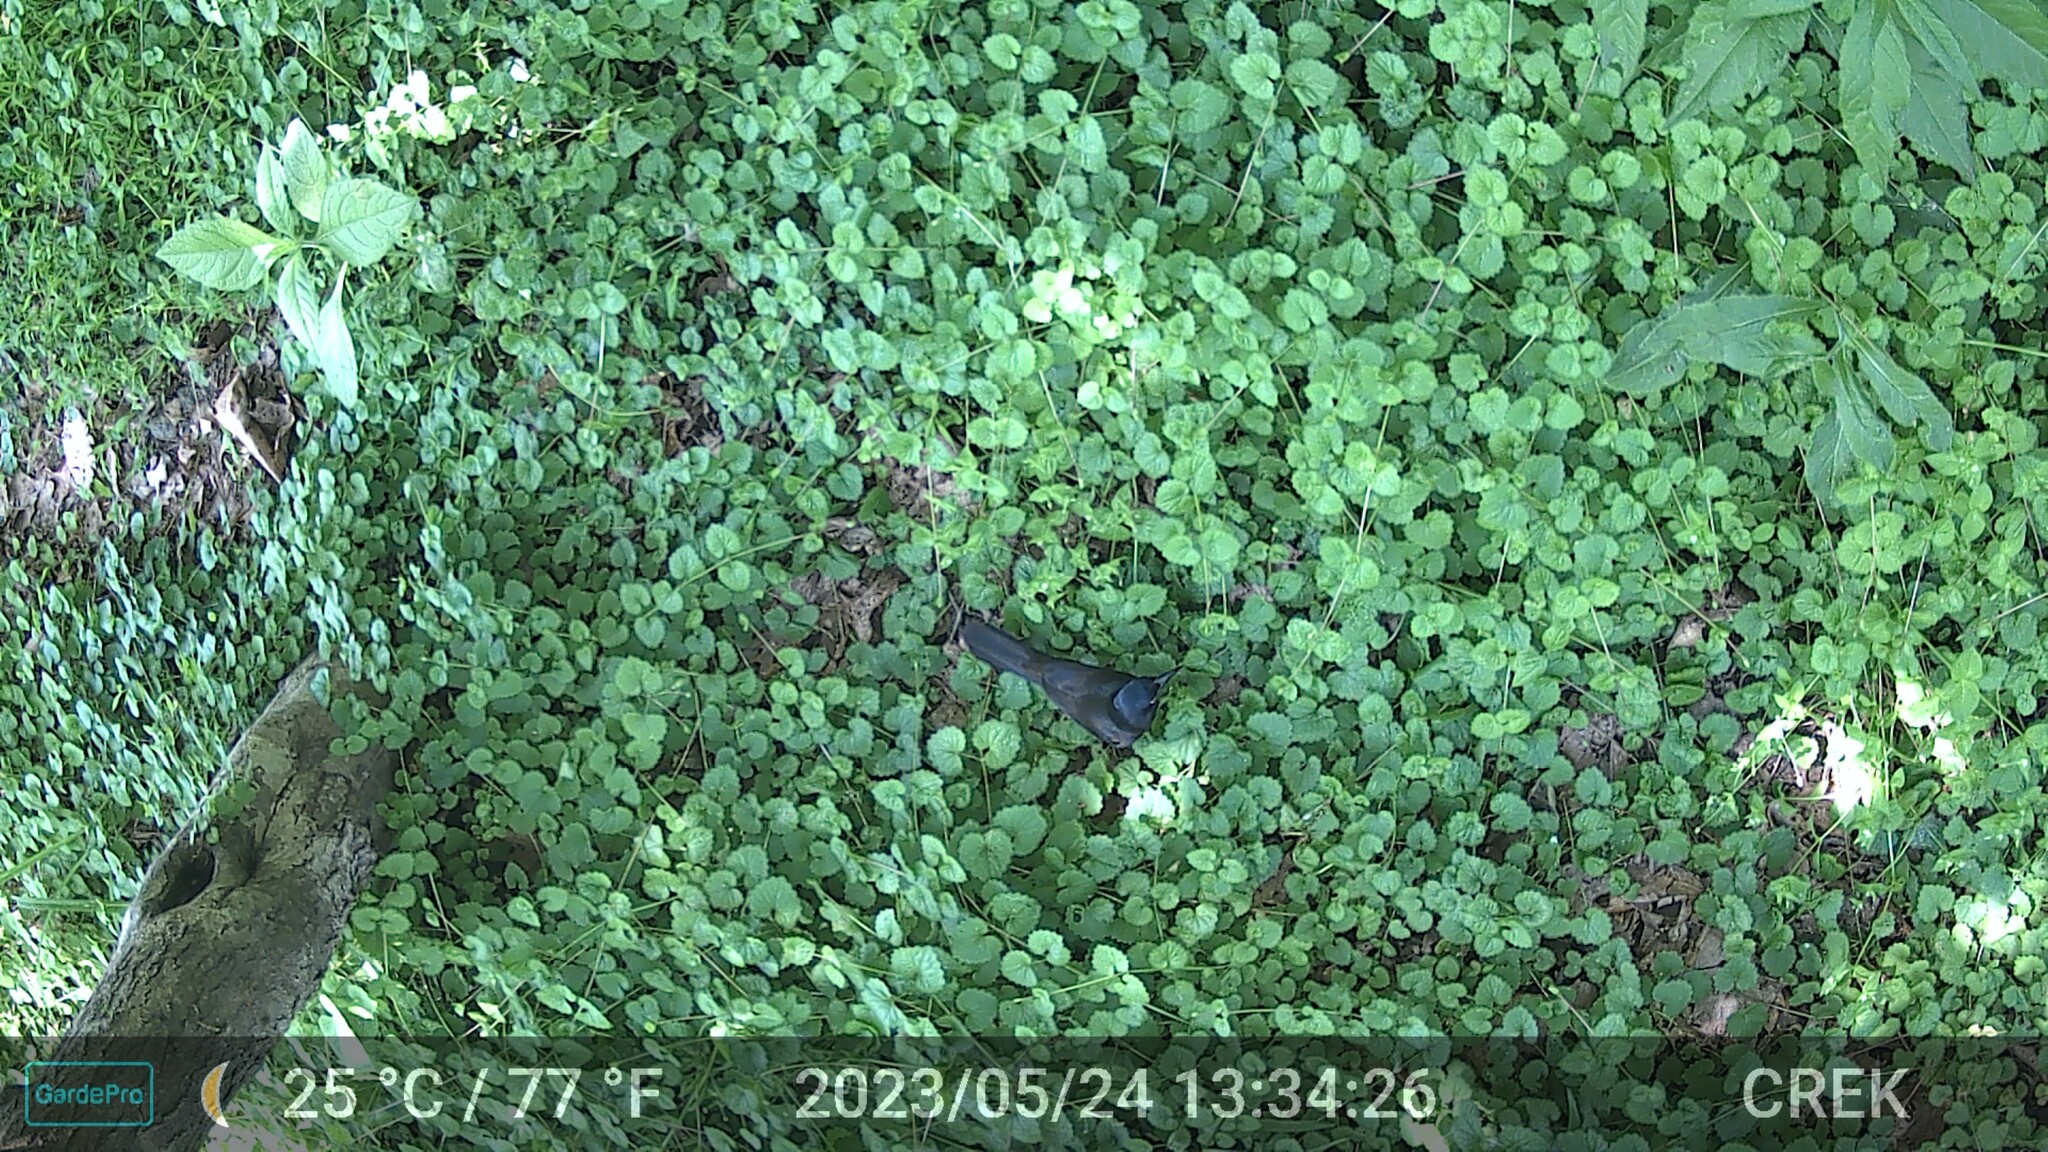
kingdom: Animalia
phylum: Chordata
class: Aves
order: Passeriformes
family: Icteridae
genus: Quiscalus
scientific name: Quiscalus quiscula
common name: Common grackle
